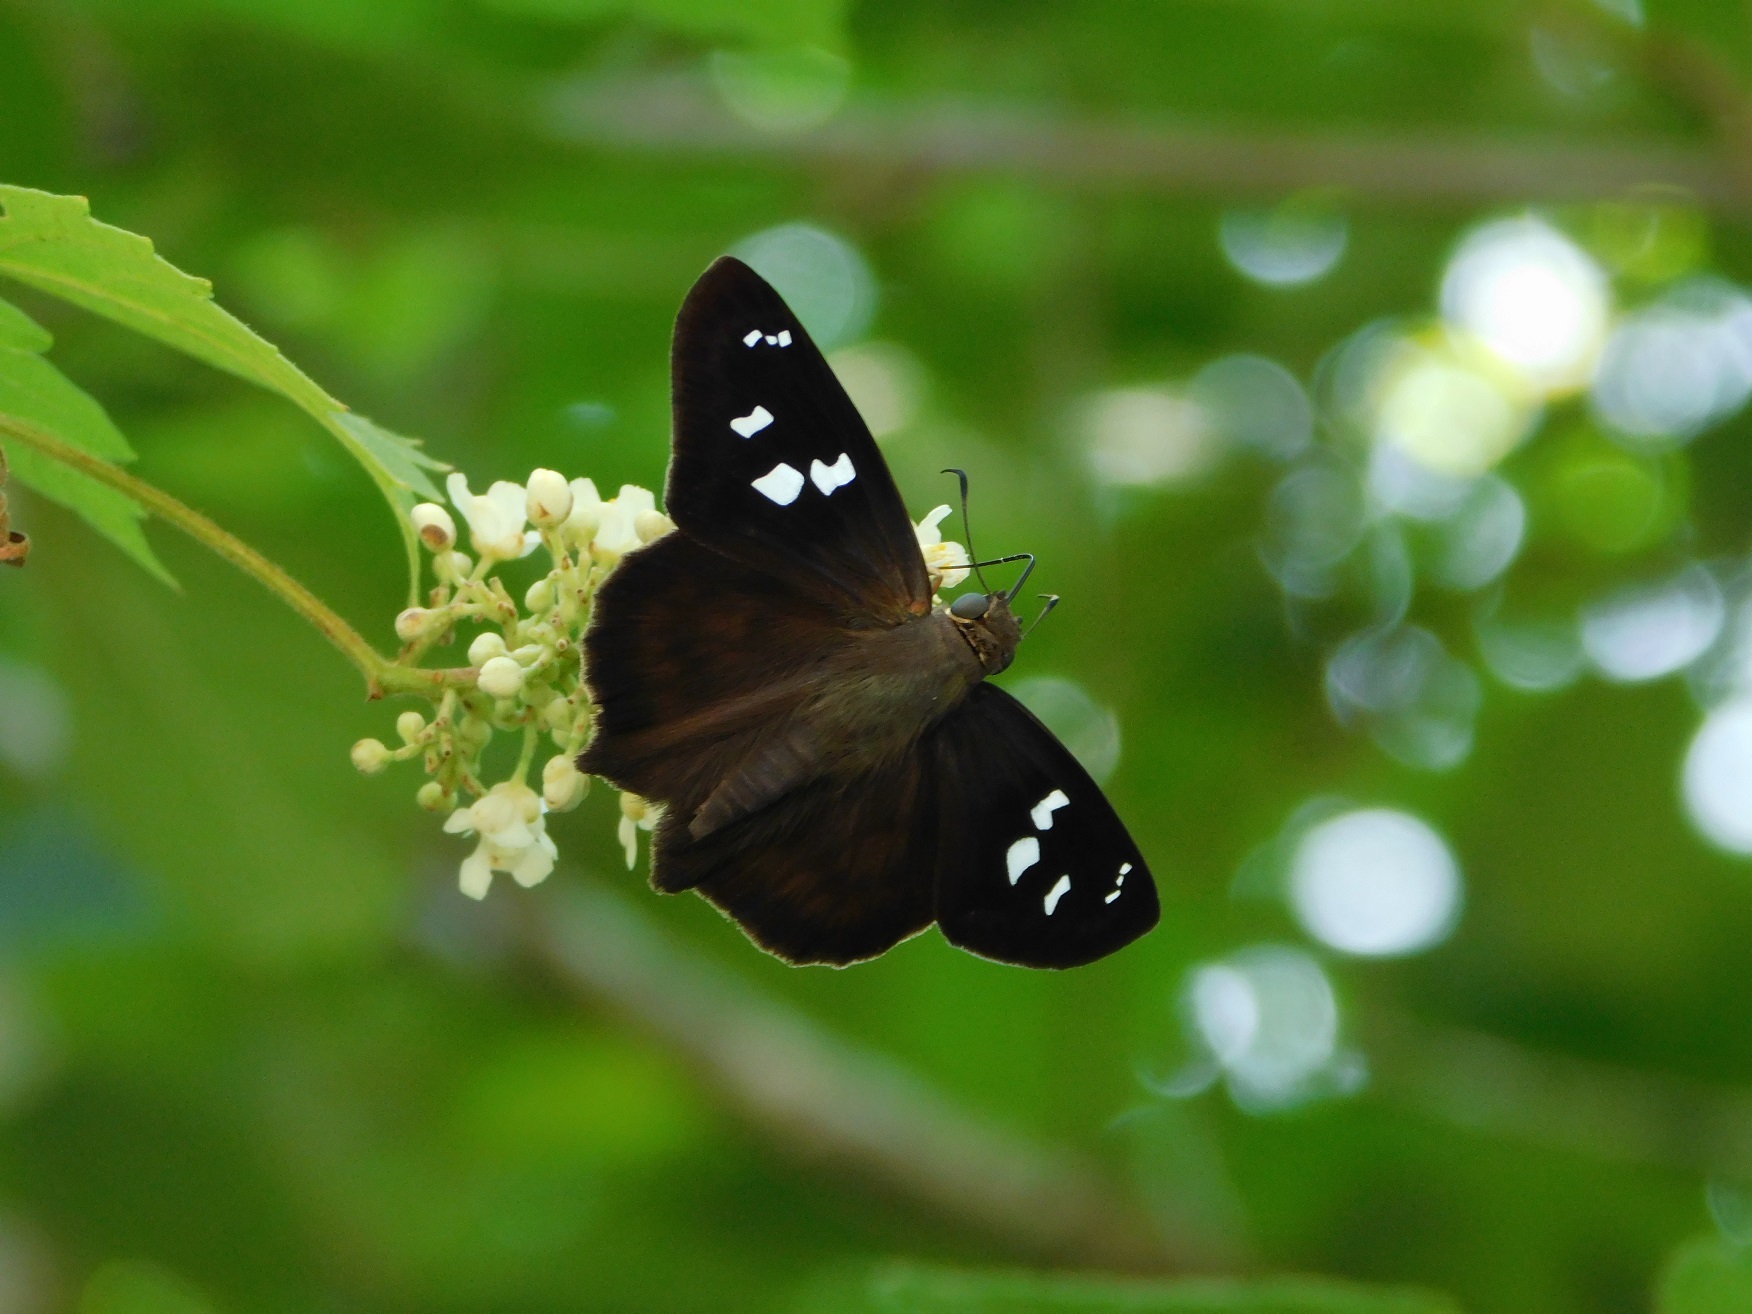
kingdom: Animalia
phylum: Arthropoda
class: Insecta
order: Lepidoptera
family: Hesperiidae
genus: Polygonus
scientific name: Polygonus
